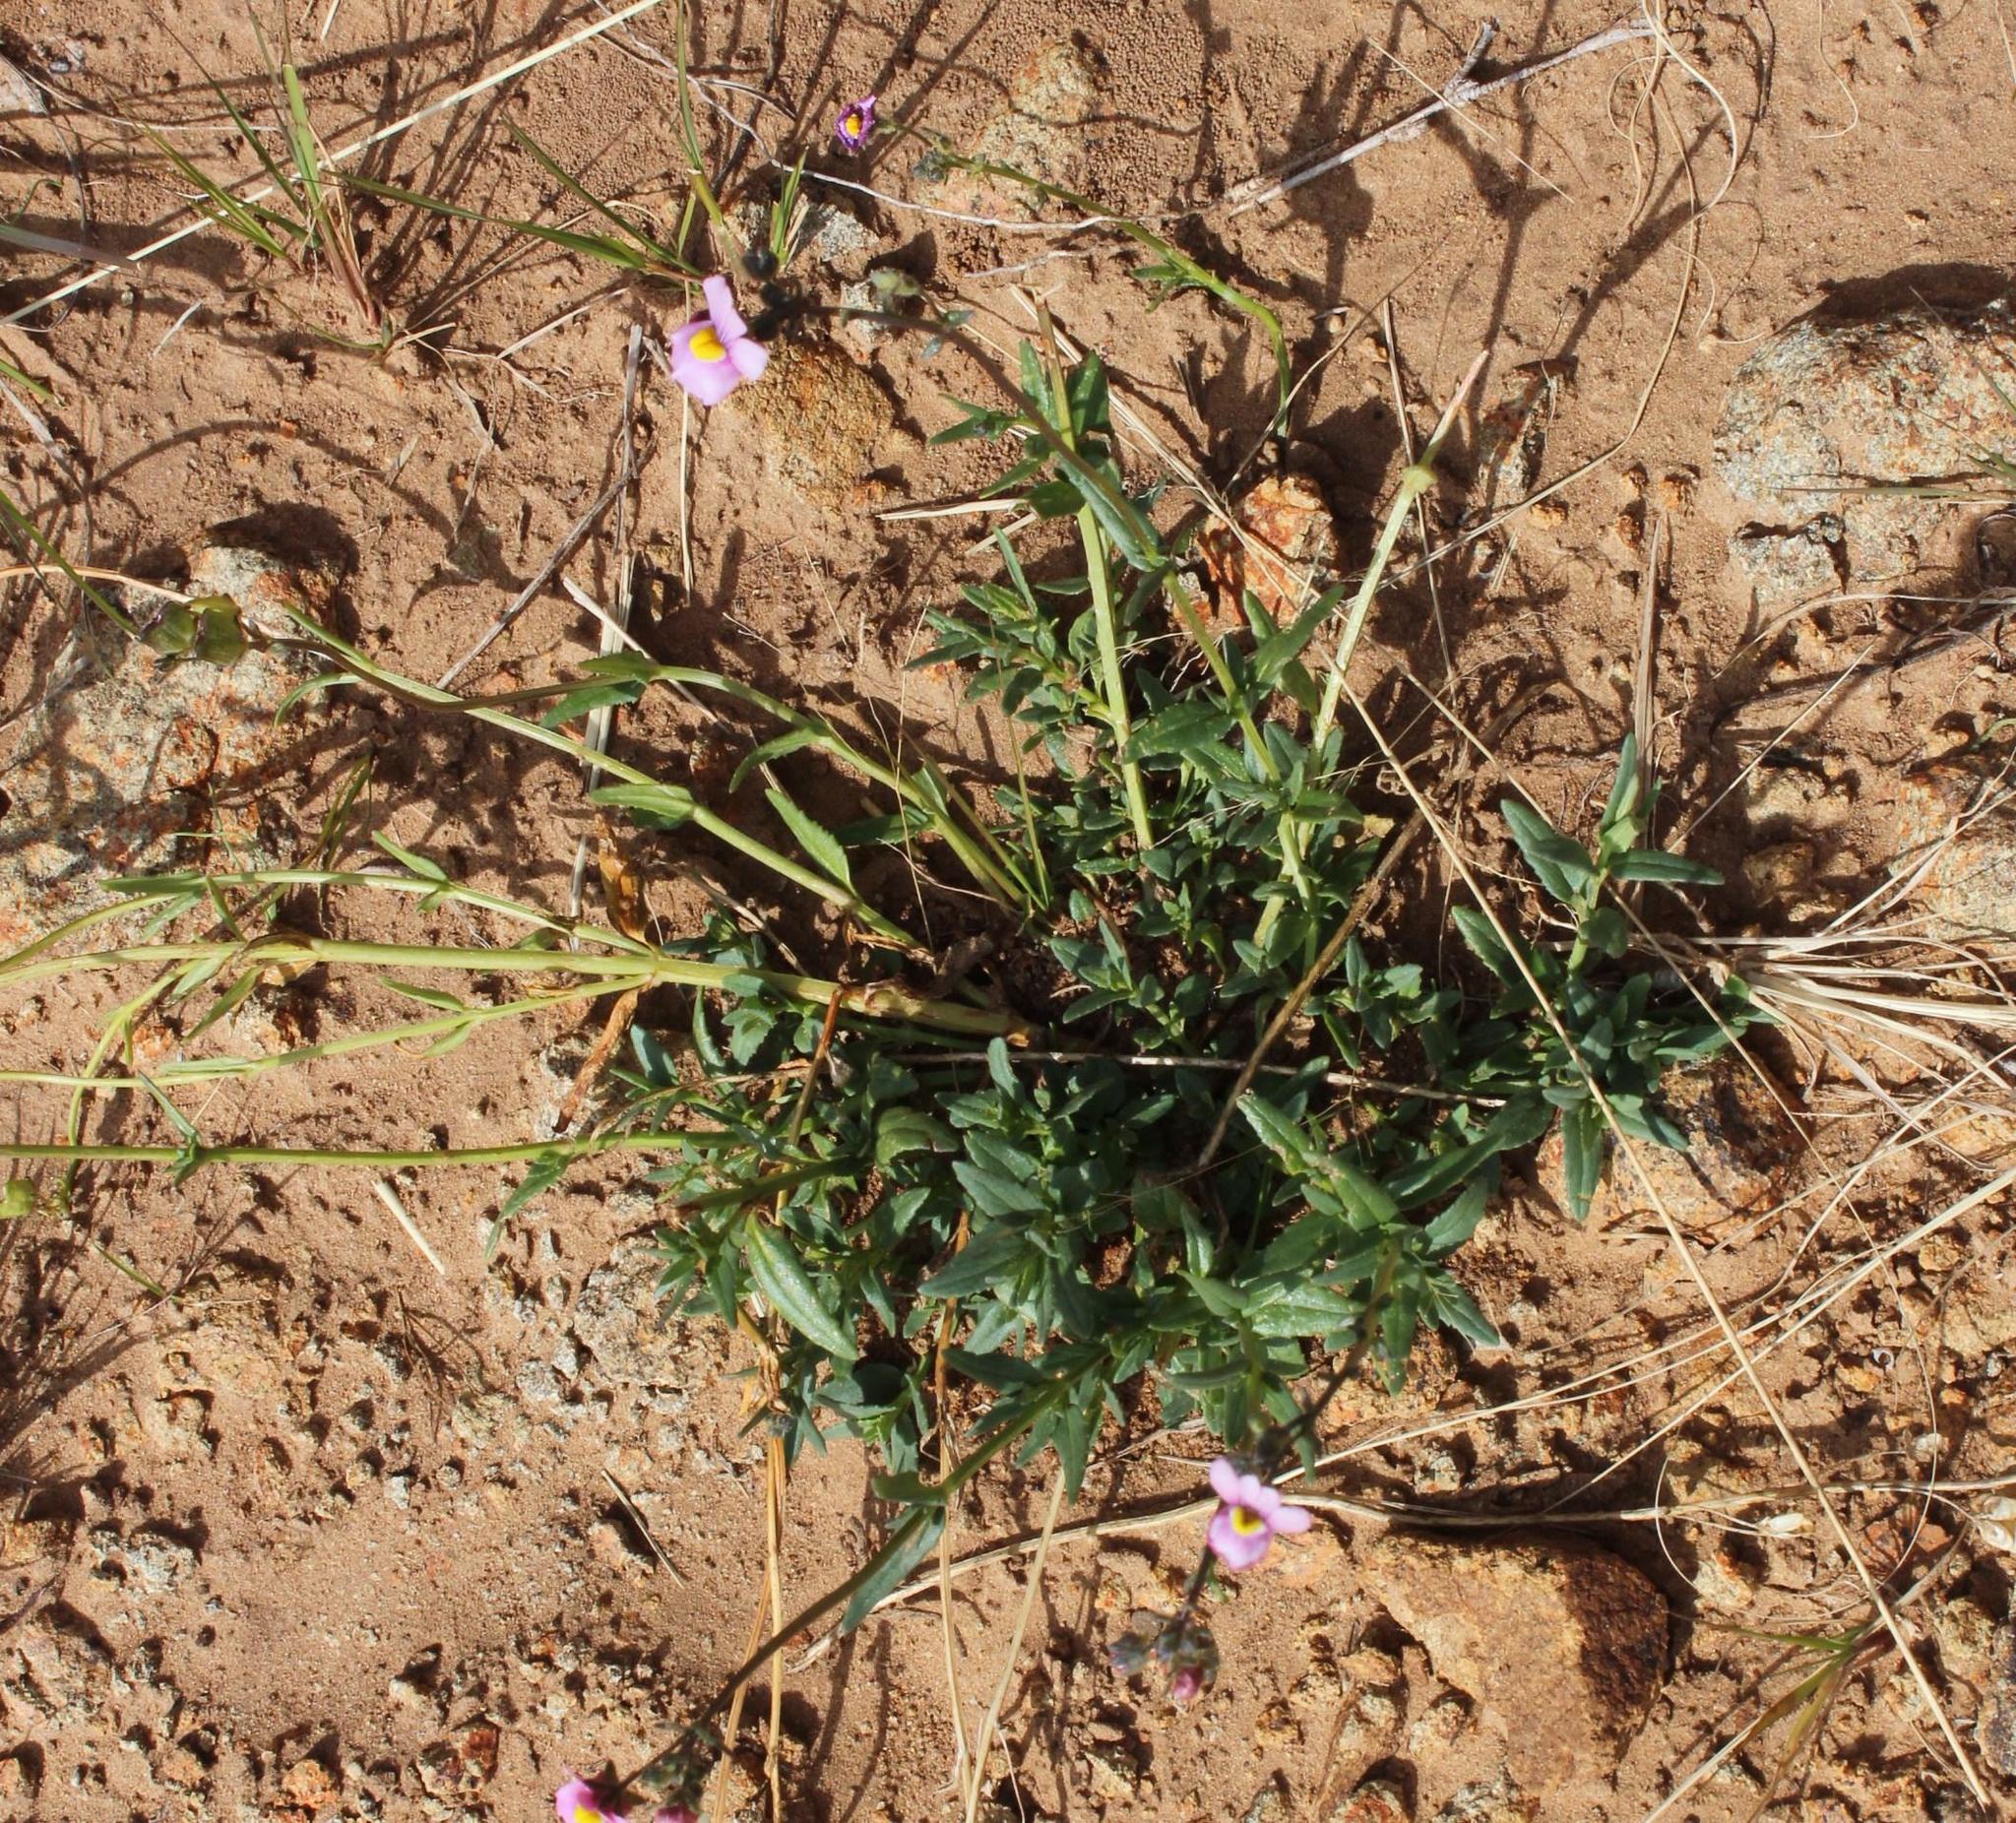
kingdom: Plantae
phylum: Tracheophyta
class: Magnoliopsida
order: Lamiales
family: Scrophulariaceae
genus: Nemesia
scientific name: Nemesia denticulata
